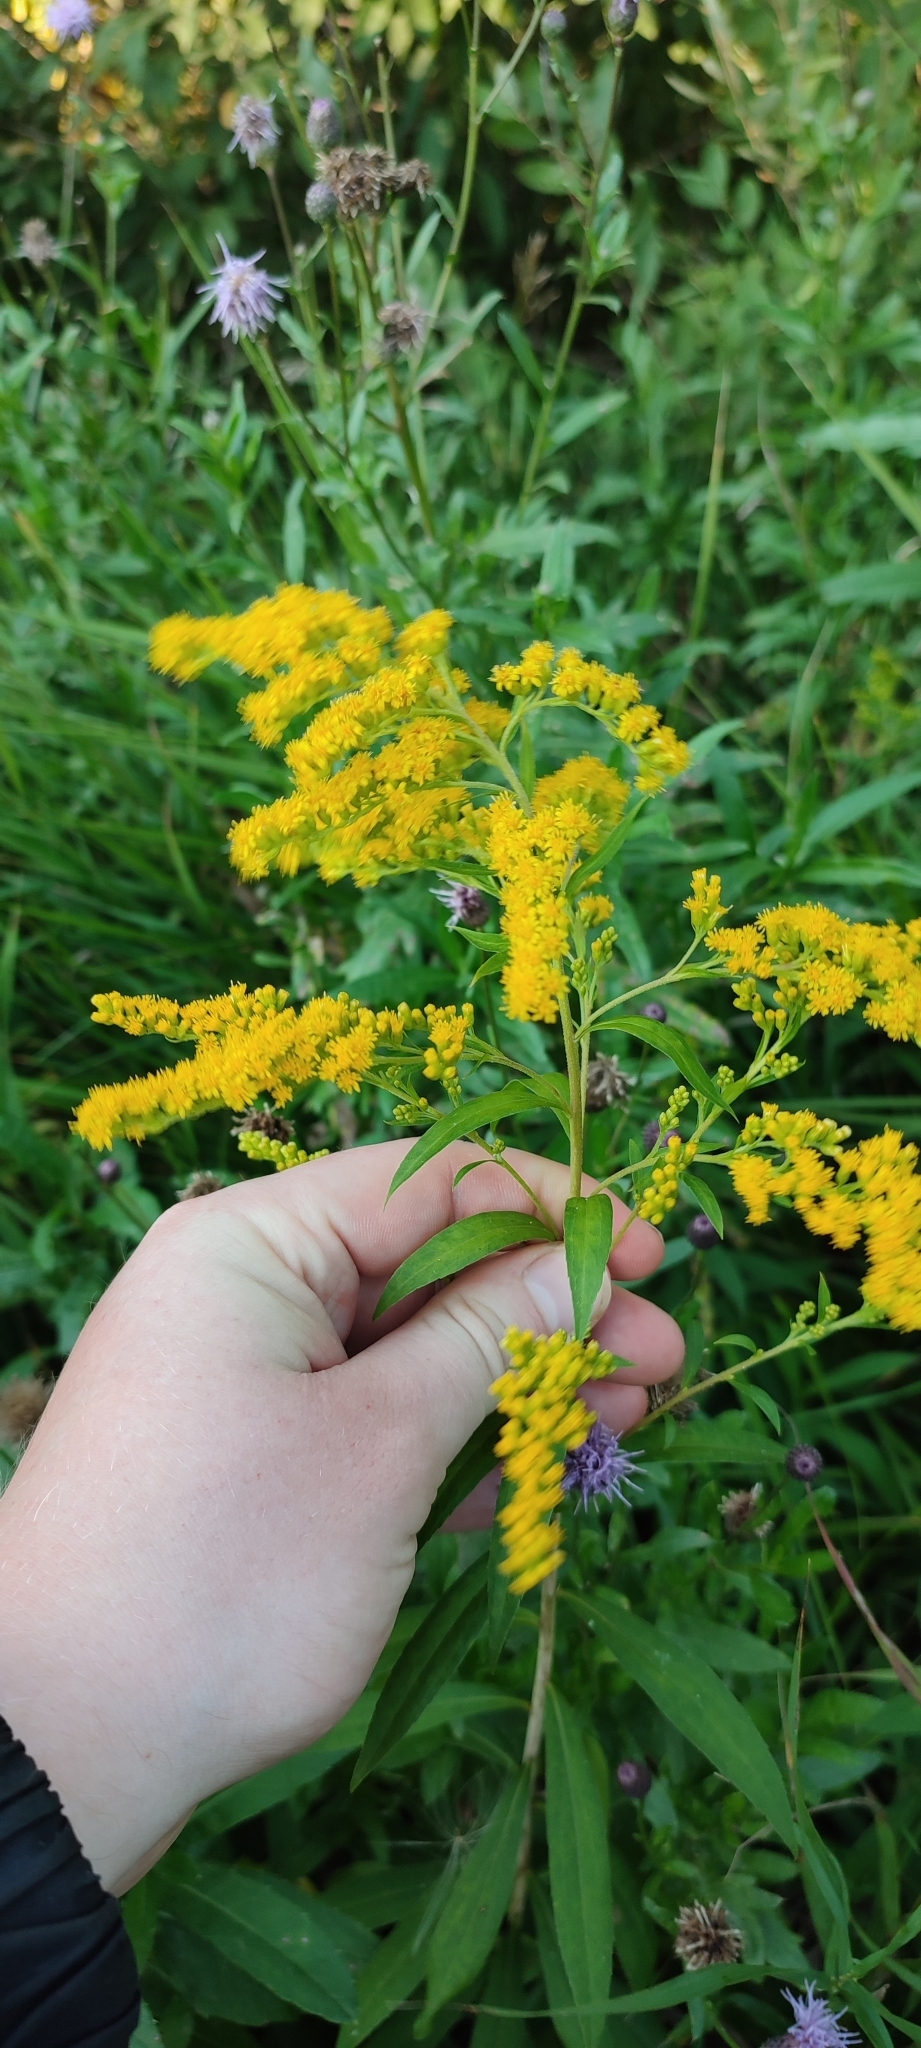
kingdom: Plantae
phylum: Tracheophyta
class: Magnoliopsida
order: Asterales
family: Asteraceae
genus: Solidago
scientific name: Solidago gigantea
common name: Giant goldenrod
